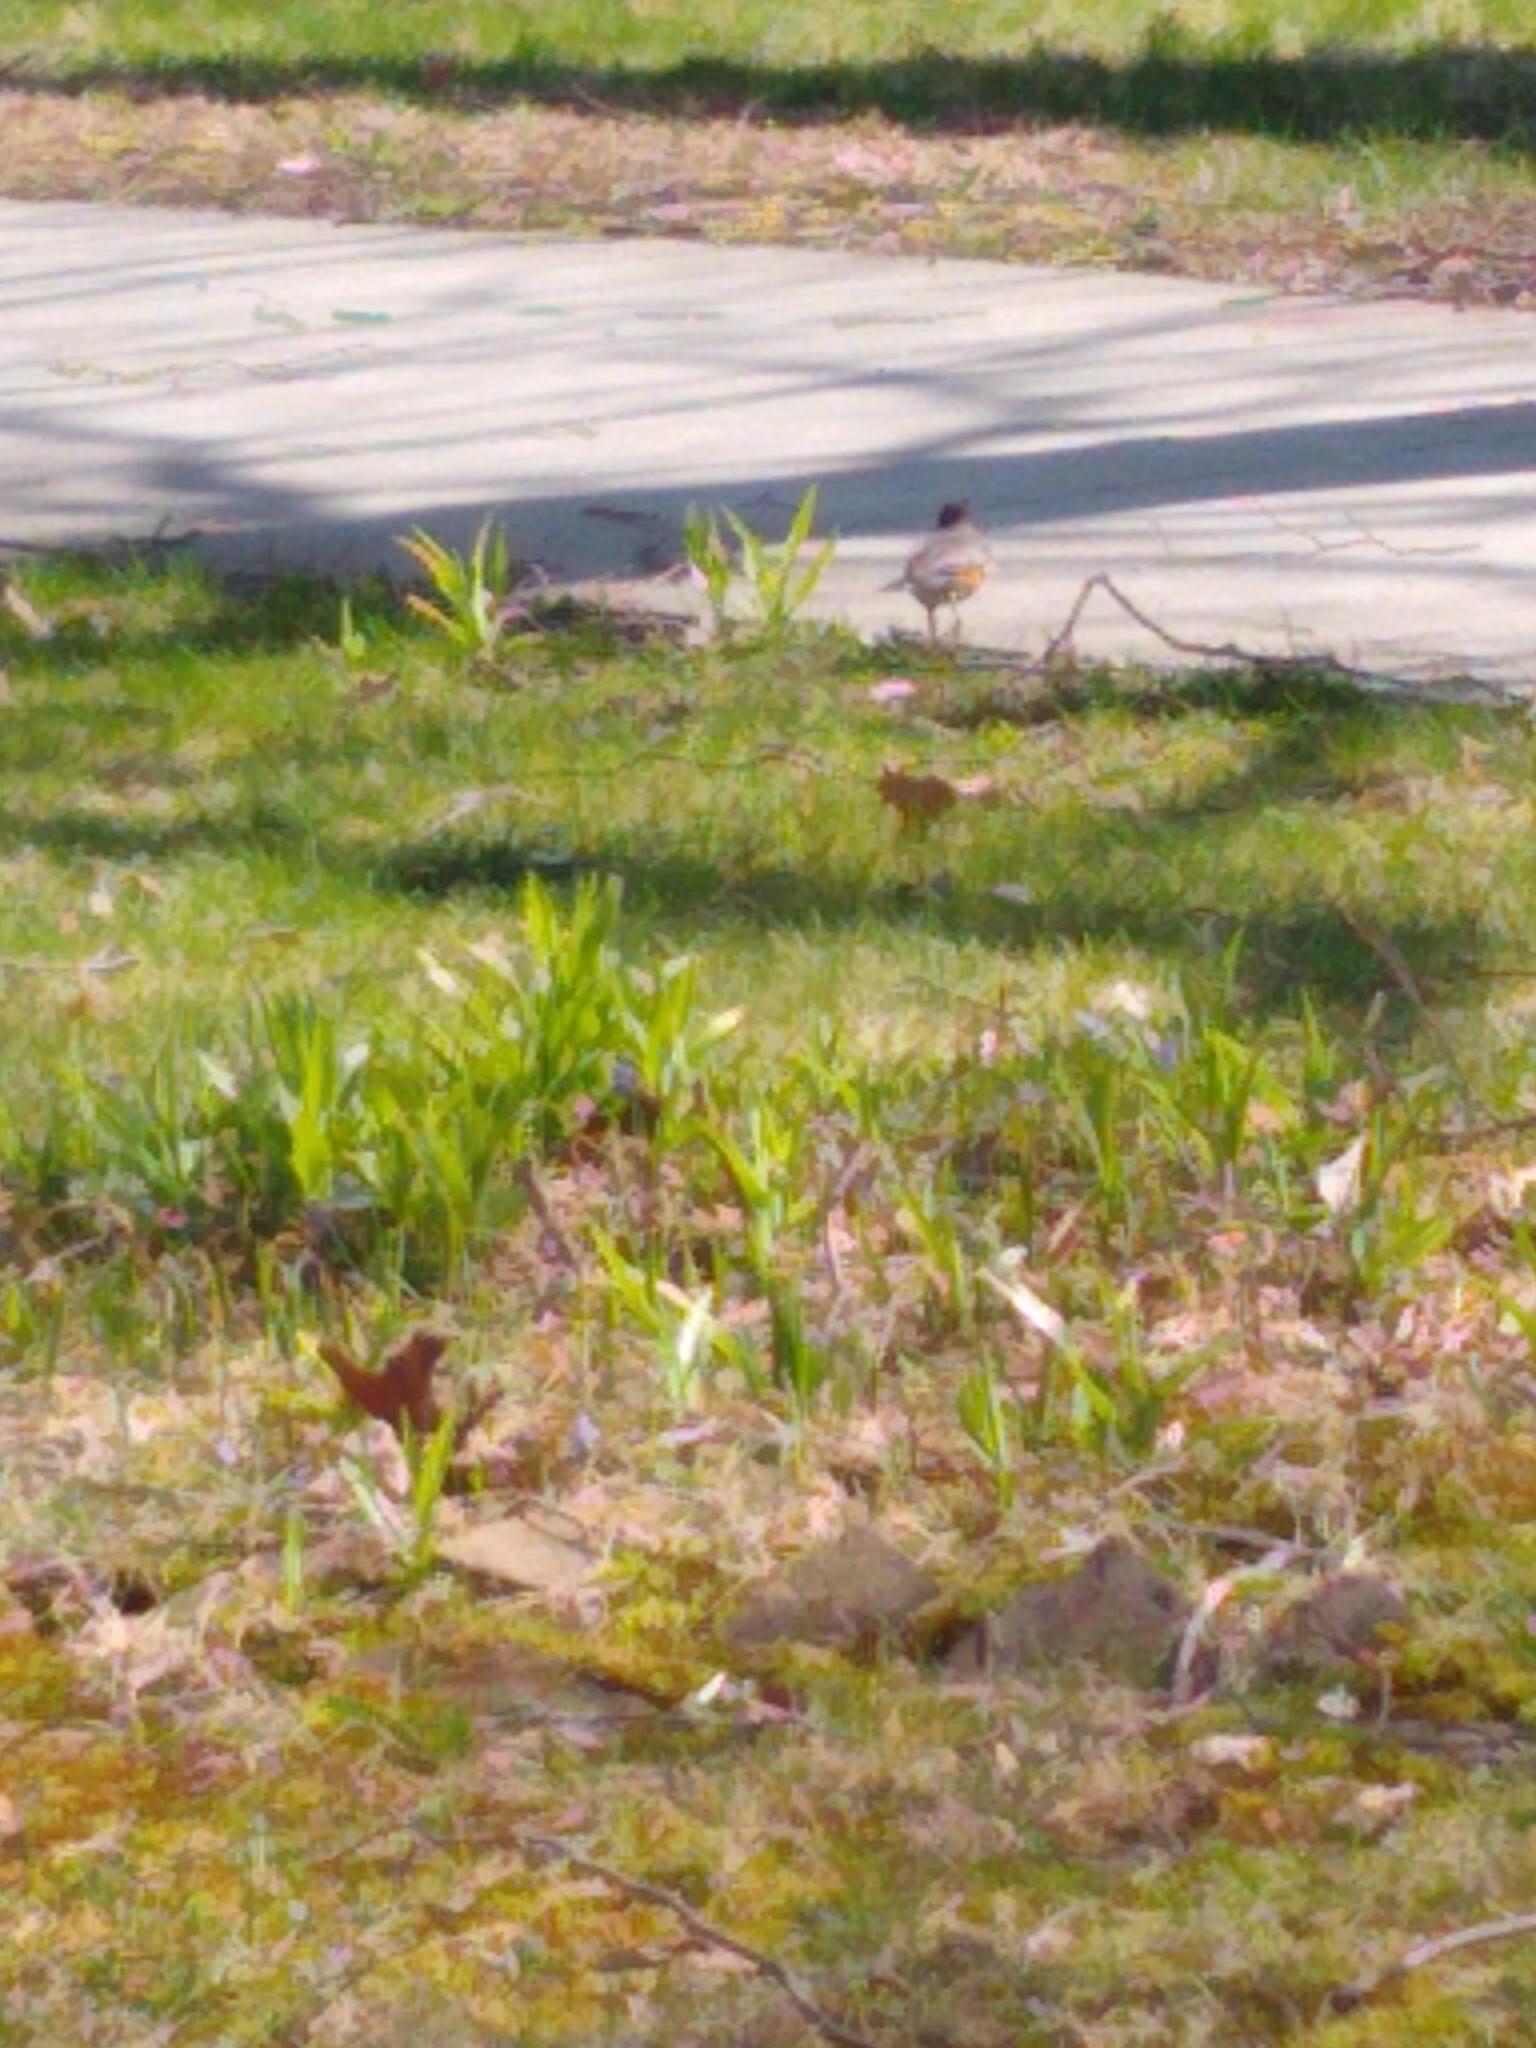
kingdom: Animalia
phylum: Chordata
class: Aves
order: Passeriformes
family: Turdidae
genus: Turdus
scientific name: Turdus migratorius
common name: American robin
